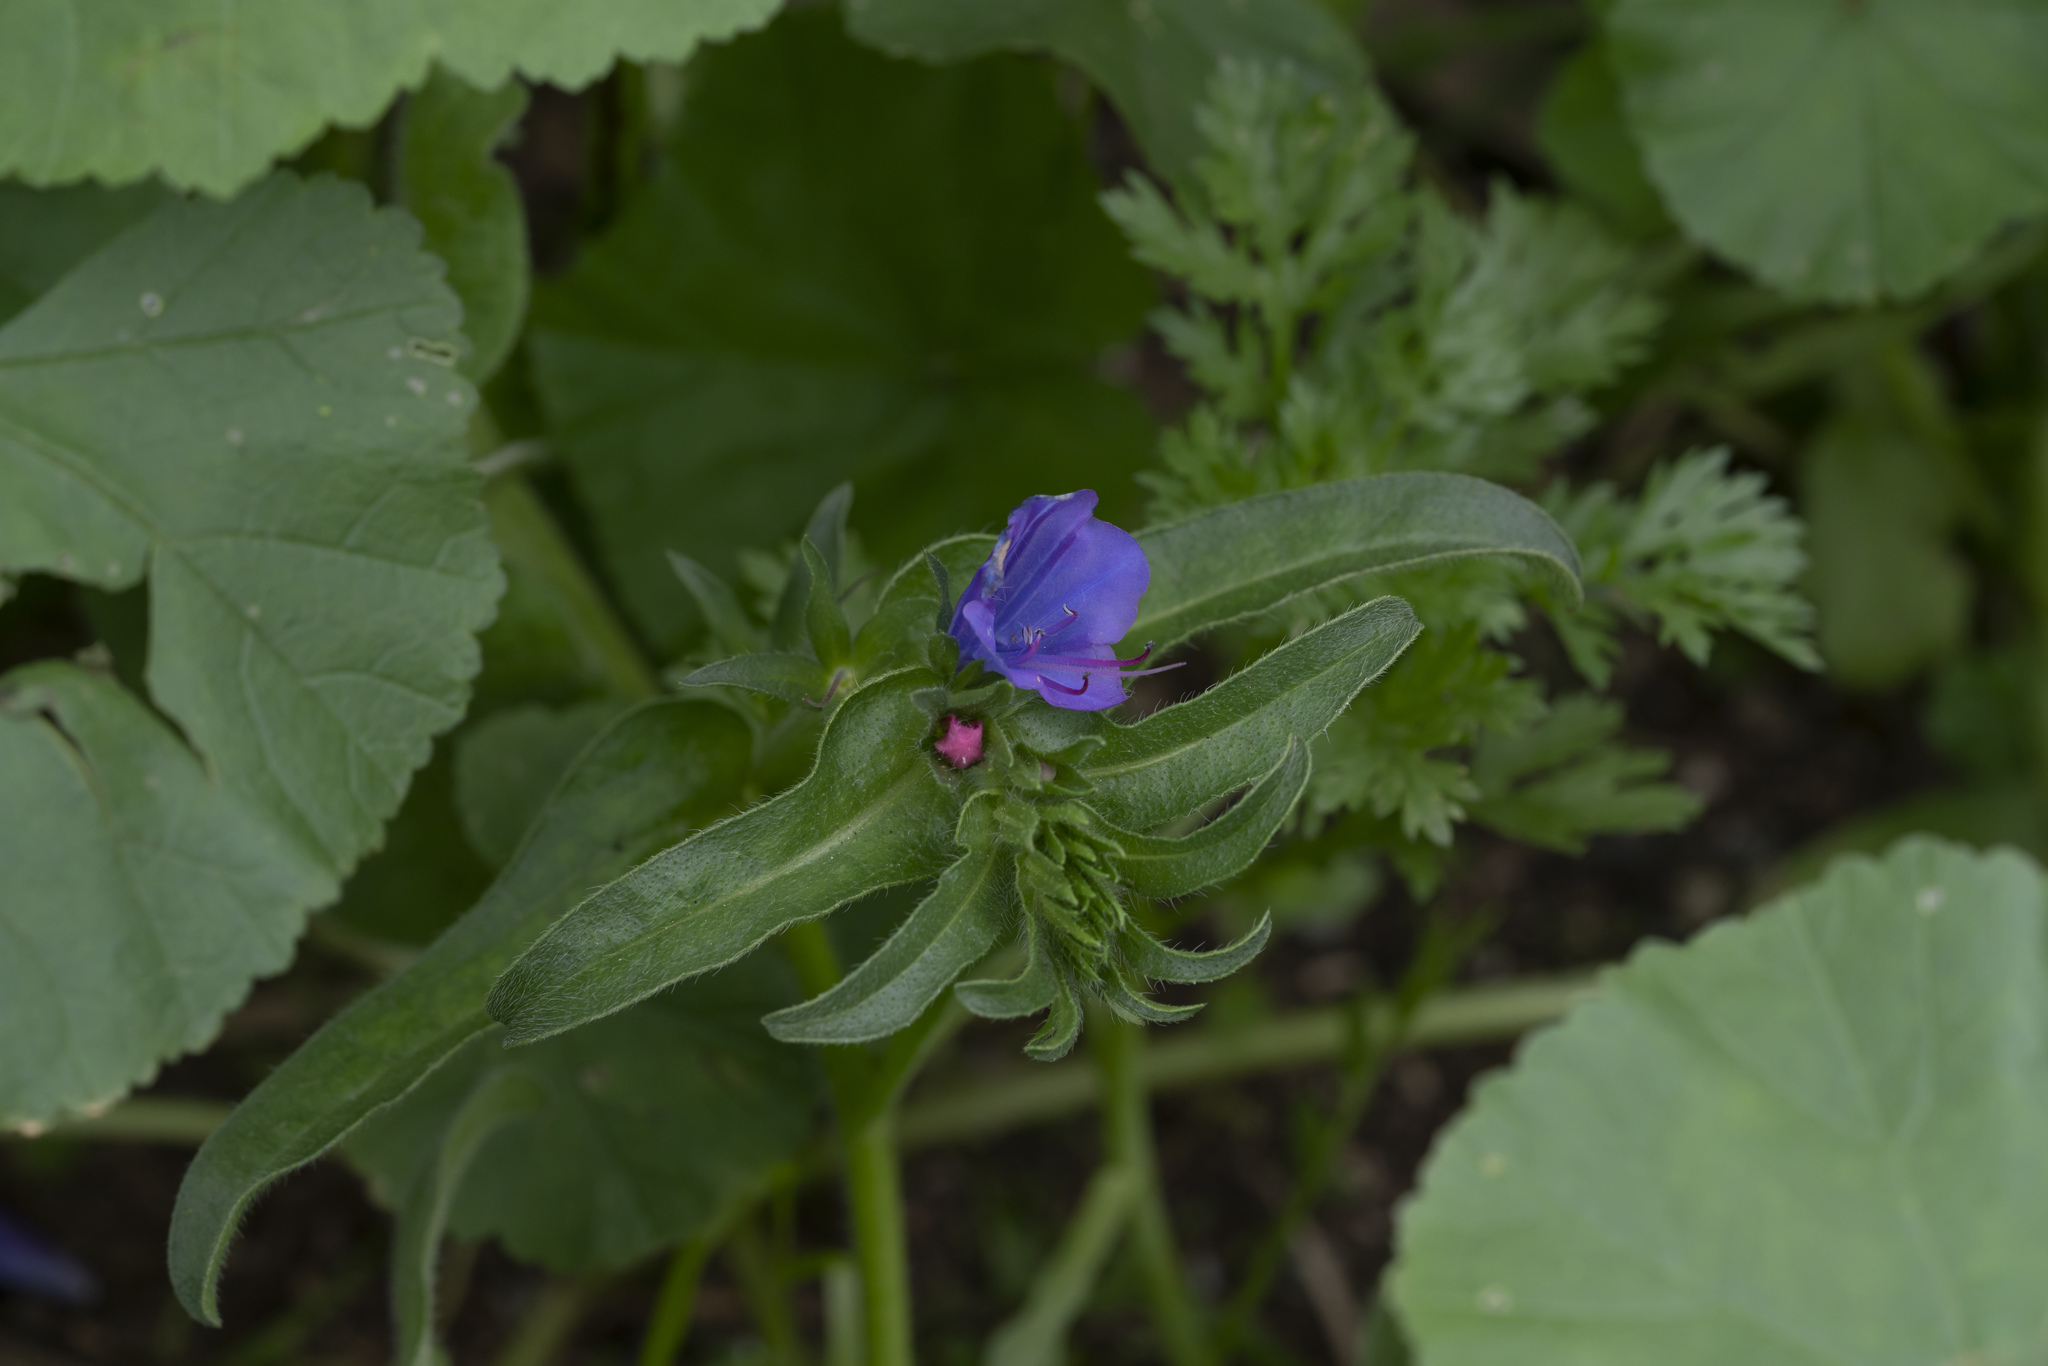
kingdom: Plantae
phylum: Tracheophyta
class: Magnoliopsida
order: Boraginales
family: Boraginaceae
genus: Echium
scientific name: Echium plantagineum
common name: Purple viper's-bugloss
